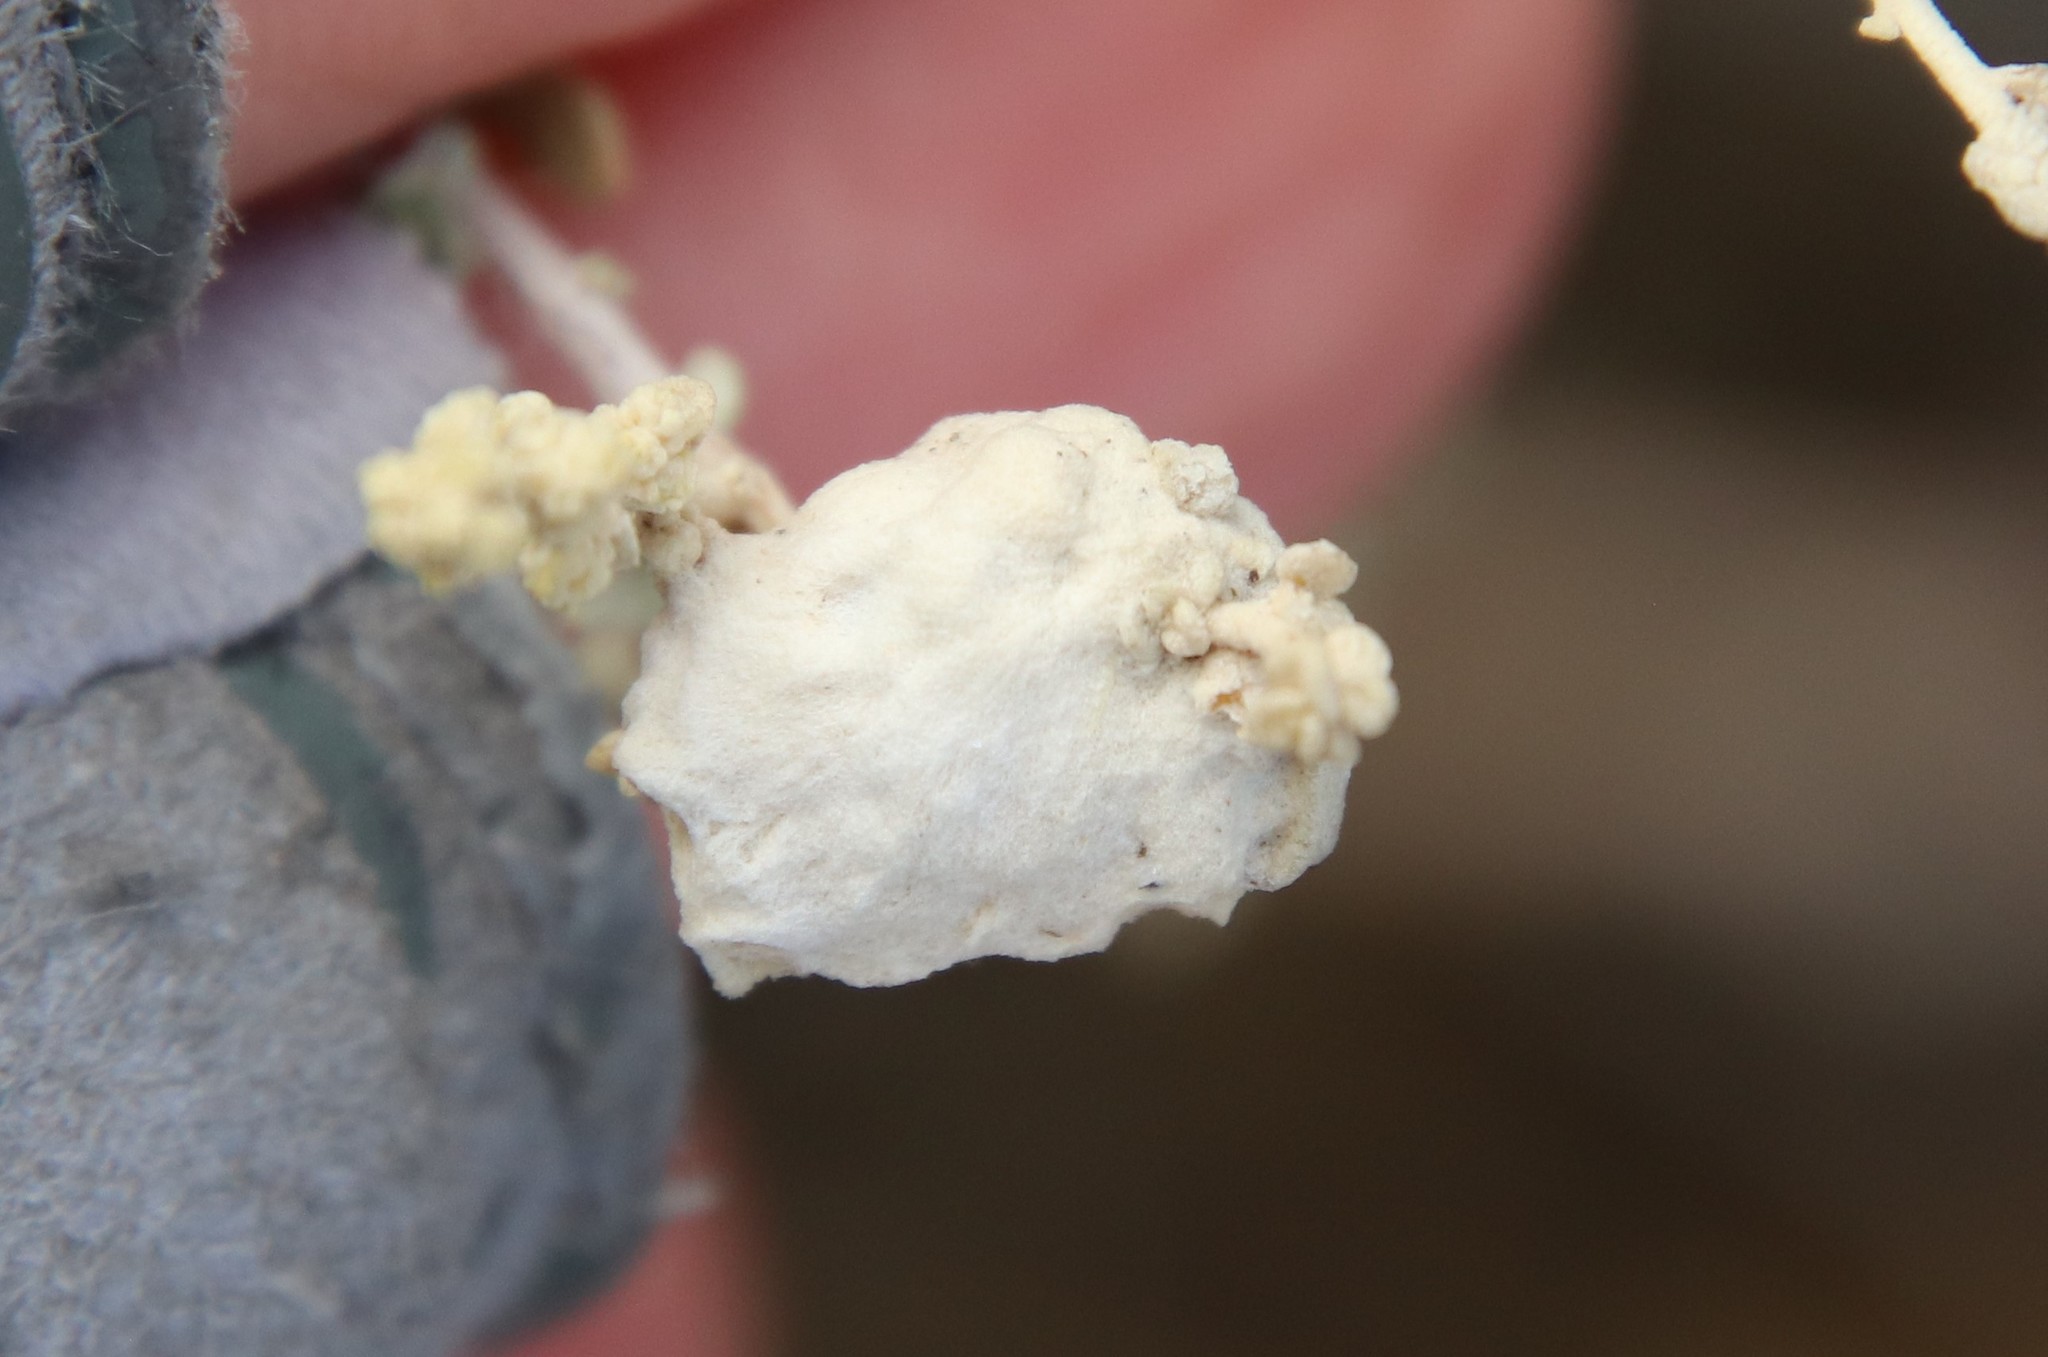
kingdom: Animalia
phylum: Arthropoda
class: Insecta
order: Diptera
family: Cecidomyiidae
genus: Asphondylia
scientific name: Asphondylia floccosa
